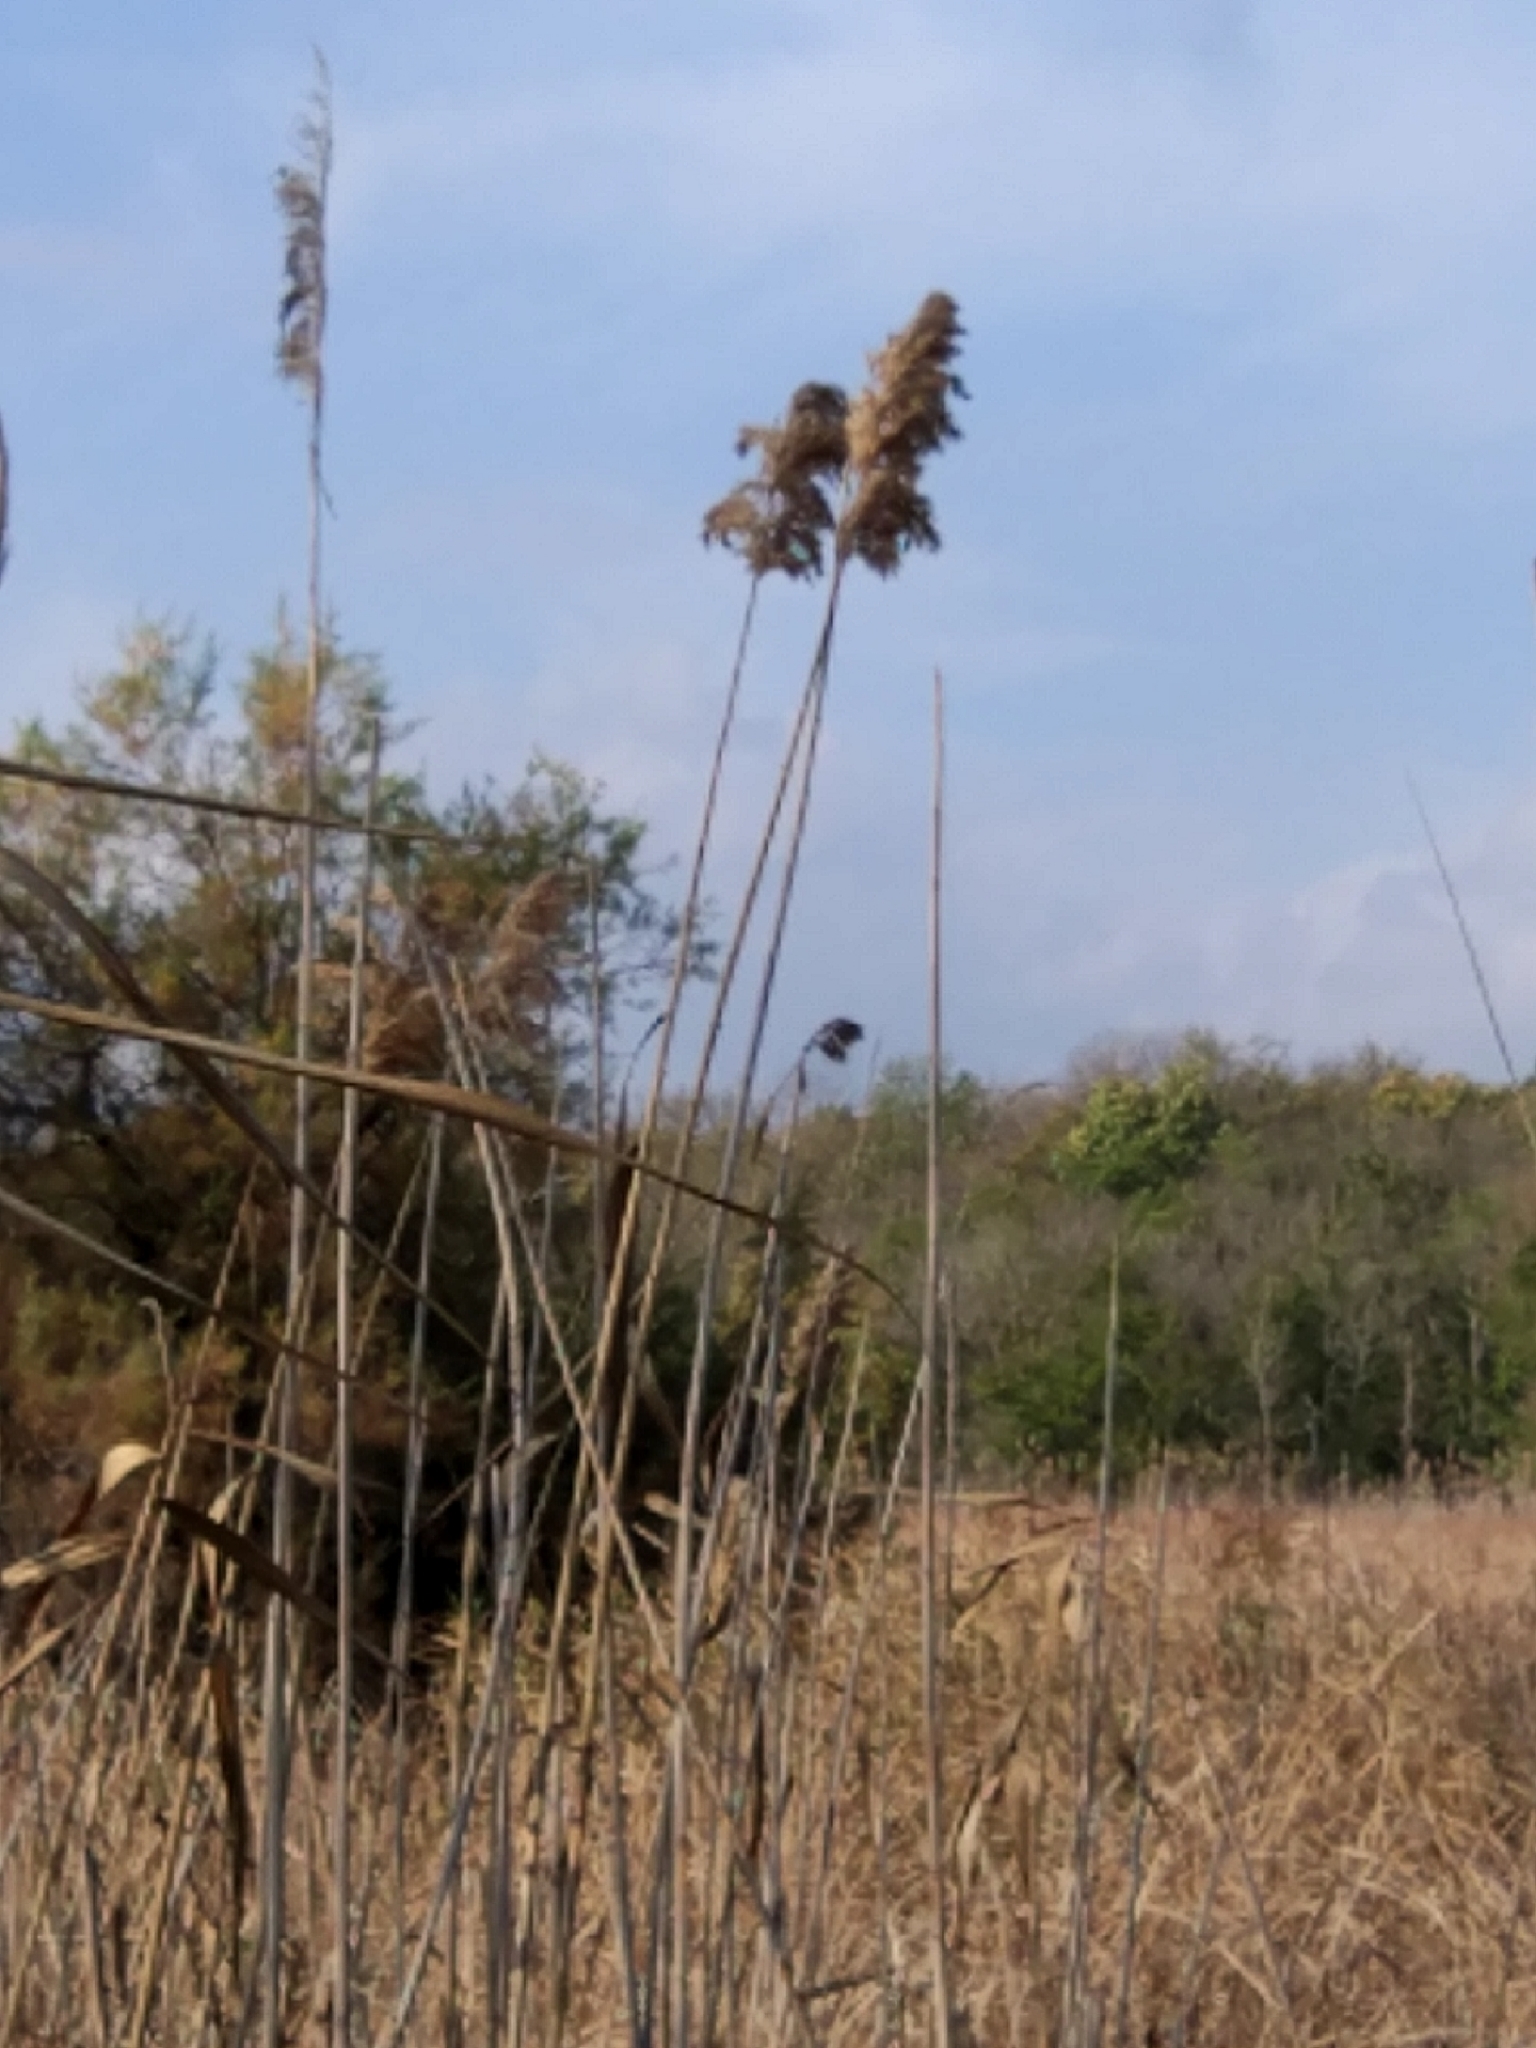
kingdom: Plantae
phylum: Tracheophyta
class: Liliopsida
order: Poales
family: Poaceae
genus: Phragmites
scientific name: Phragmites australis
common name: Common reed
